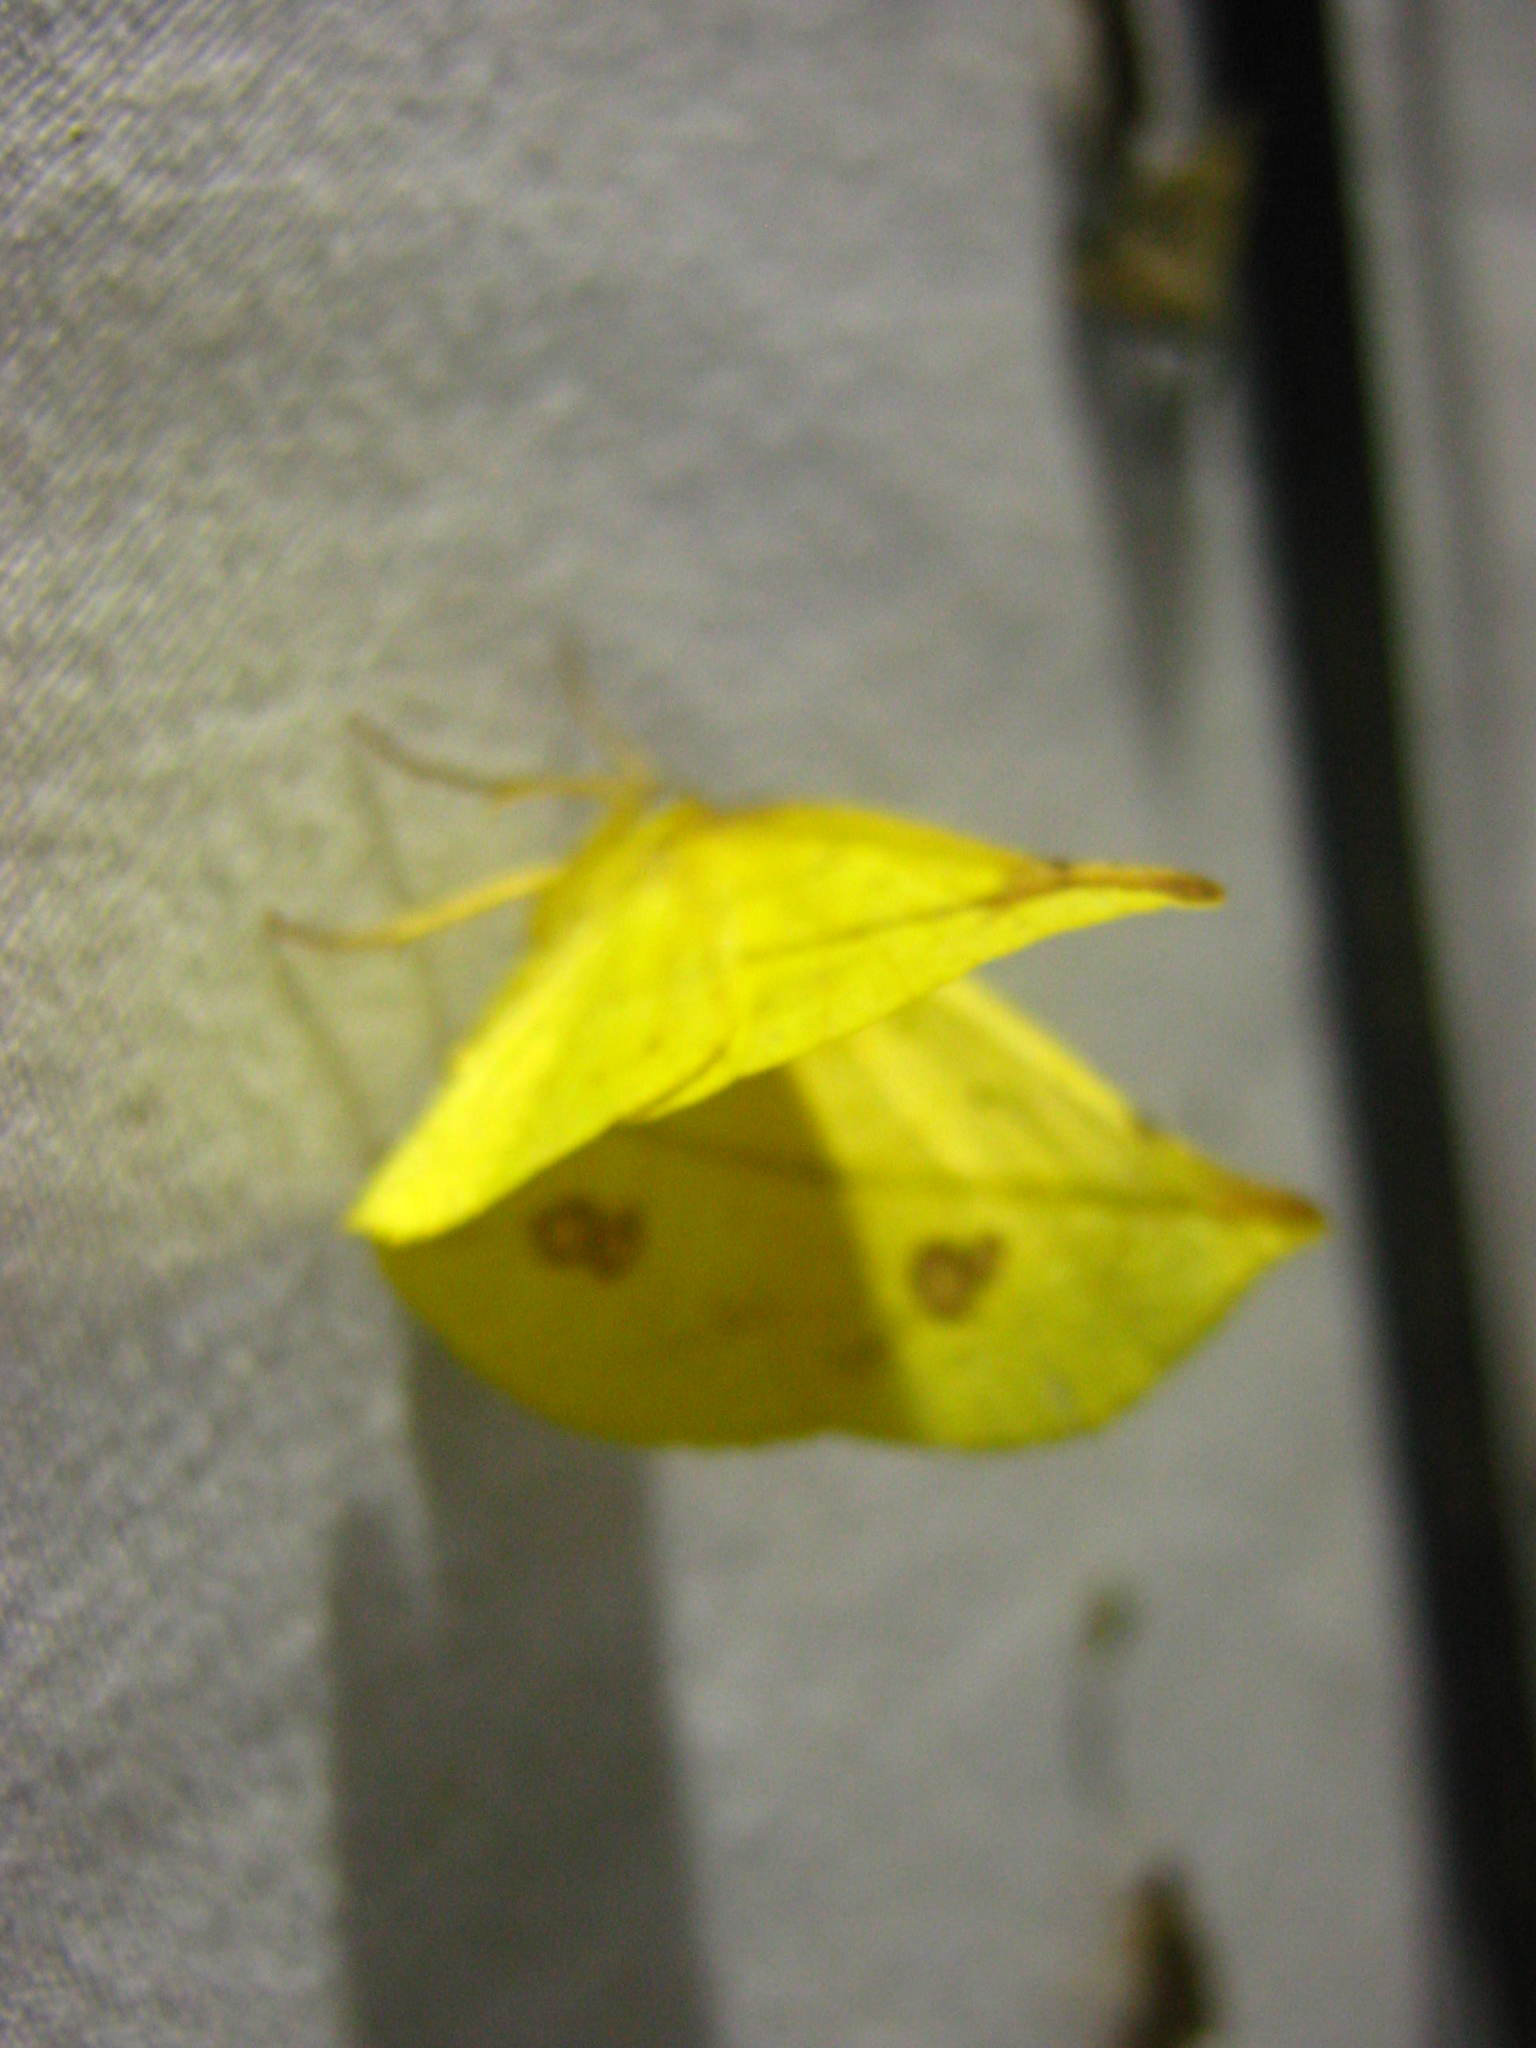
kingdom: Animalia
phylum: Arthropoda
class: Insecta
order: Lepidoptera
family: Geometridae
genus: Cratoptera
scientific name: Cratoptera primularia
